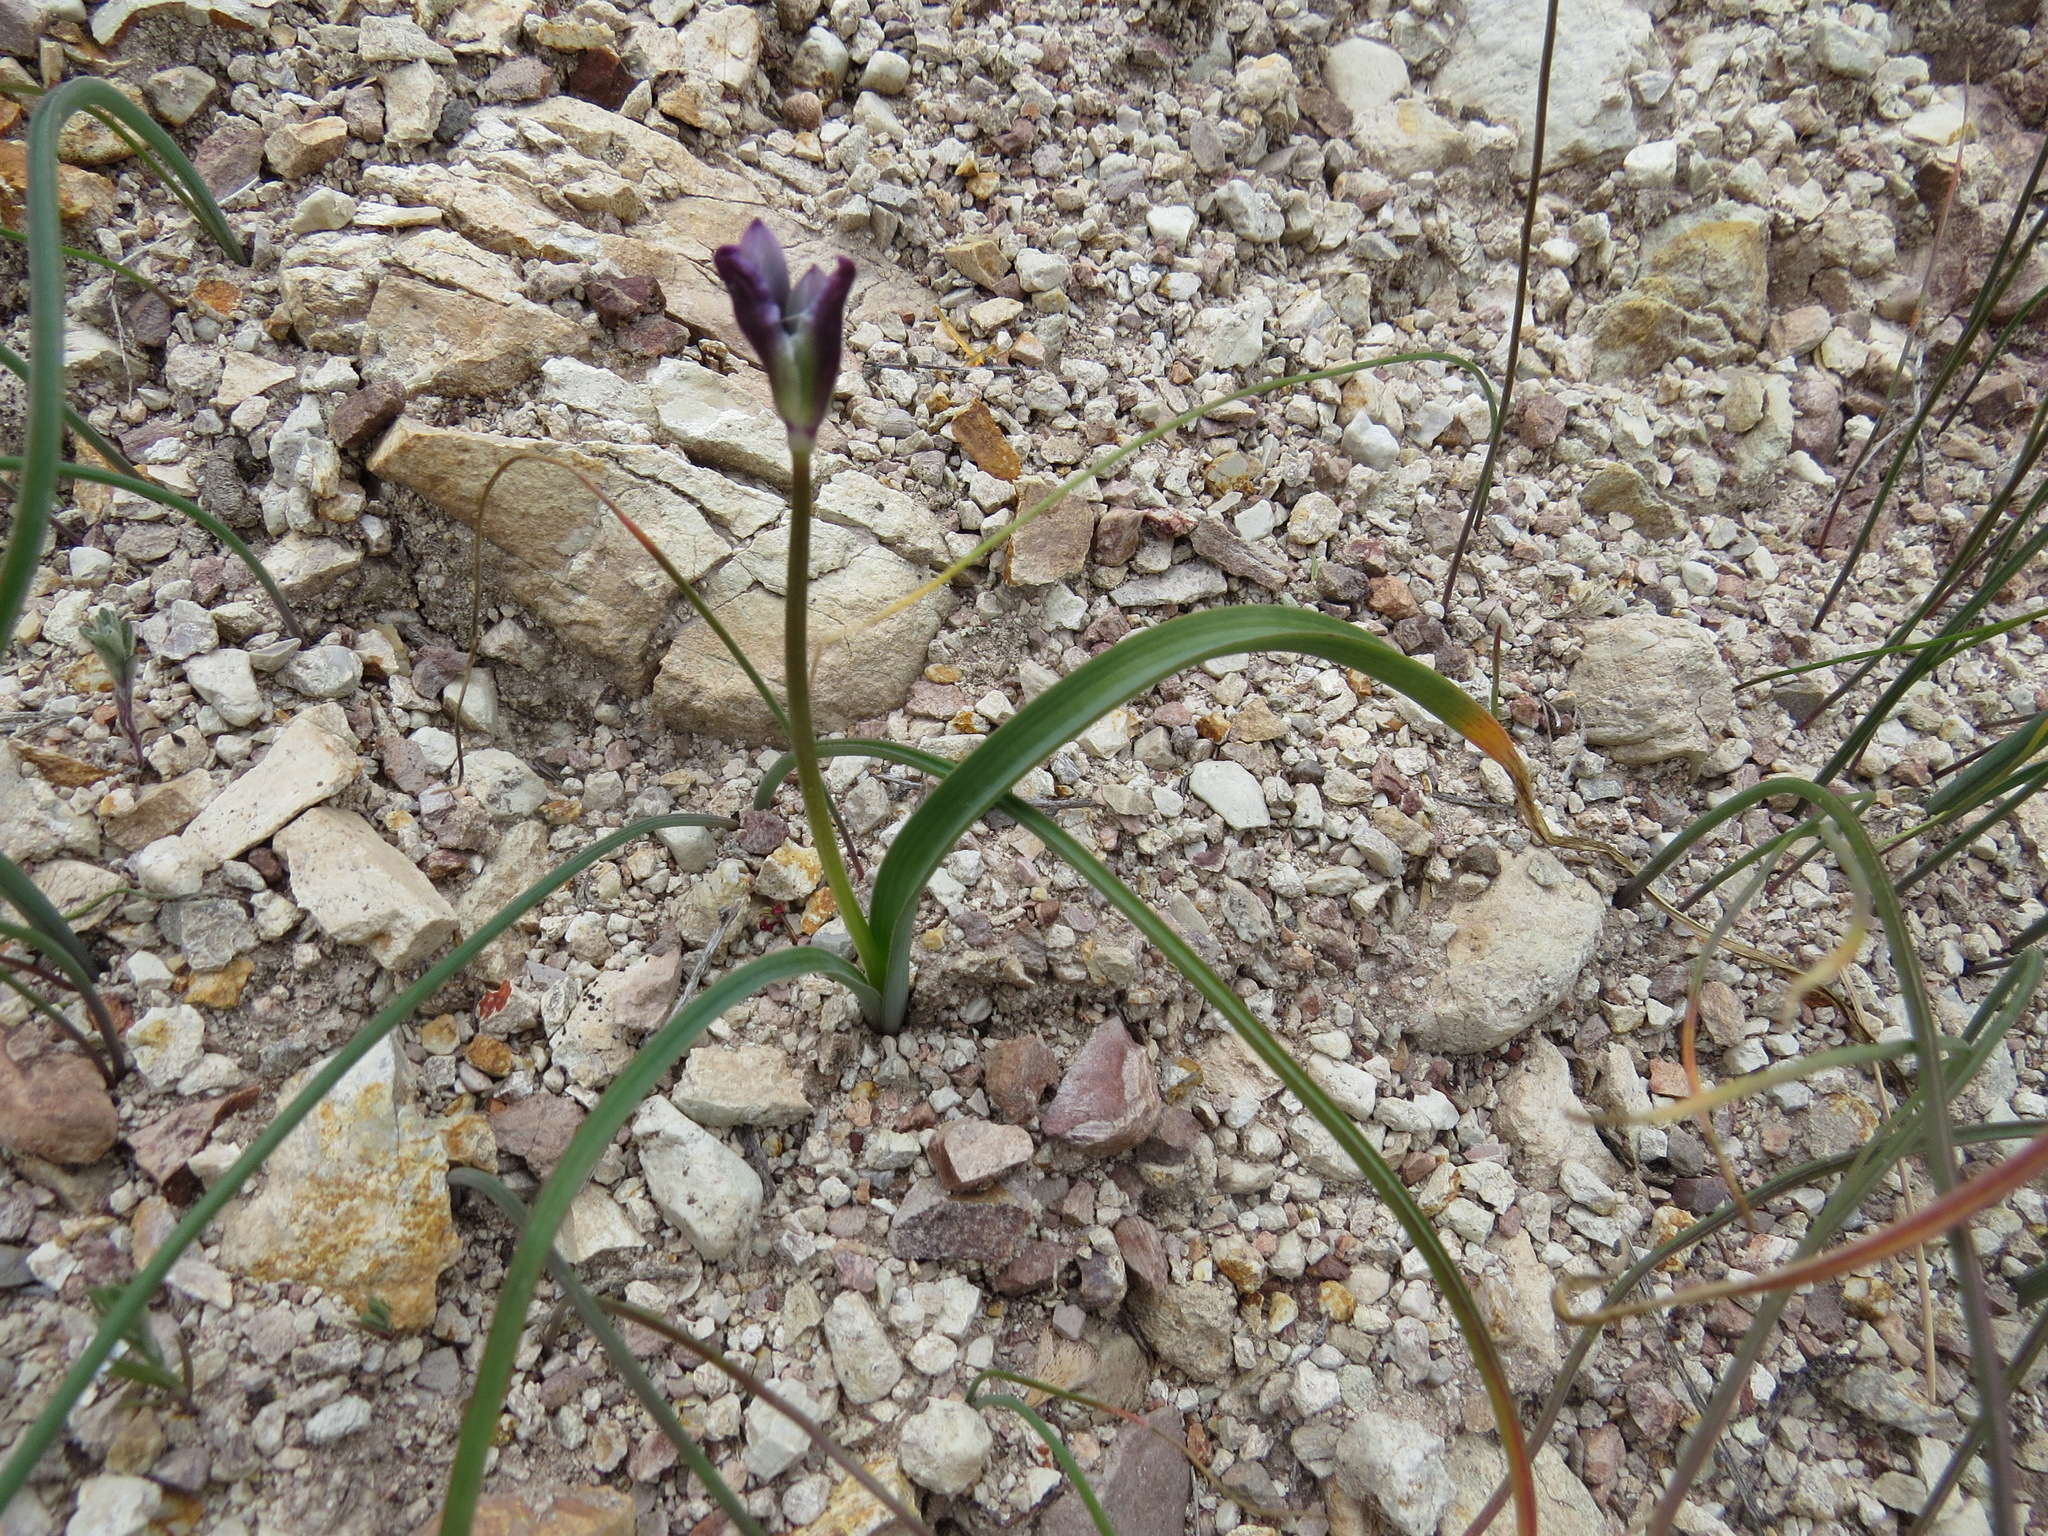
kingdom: Plantae
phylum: Tracheophyta
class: Liliopsida
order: Asparagales
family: Asparagaceae
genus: Dipterostemon
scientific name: Dipterostemon capitatus
